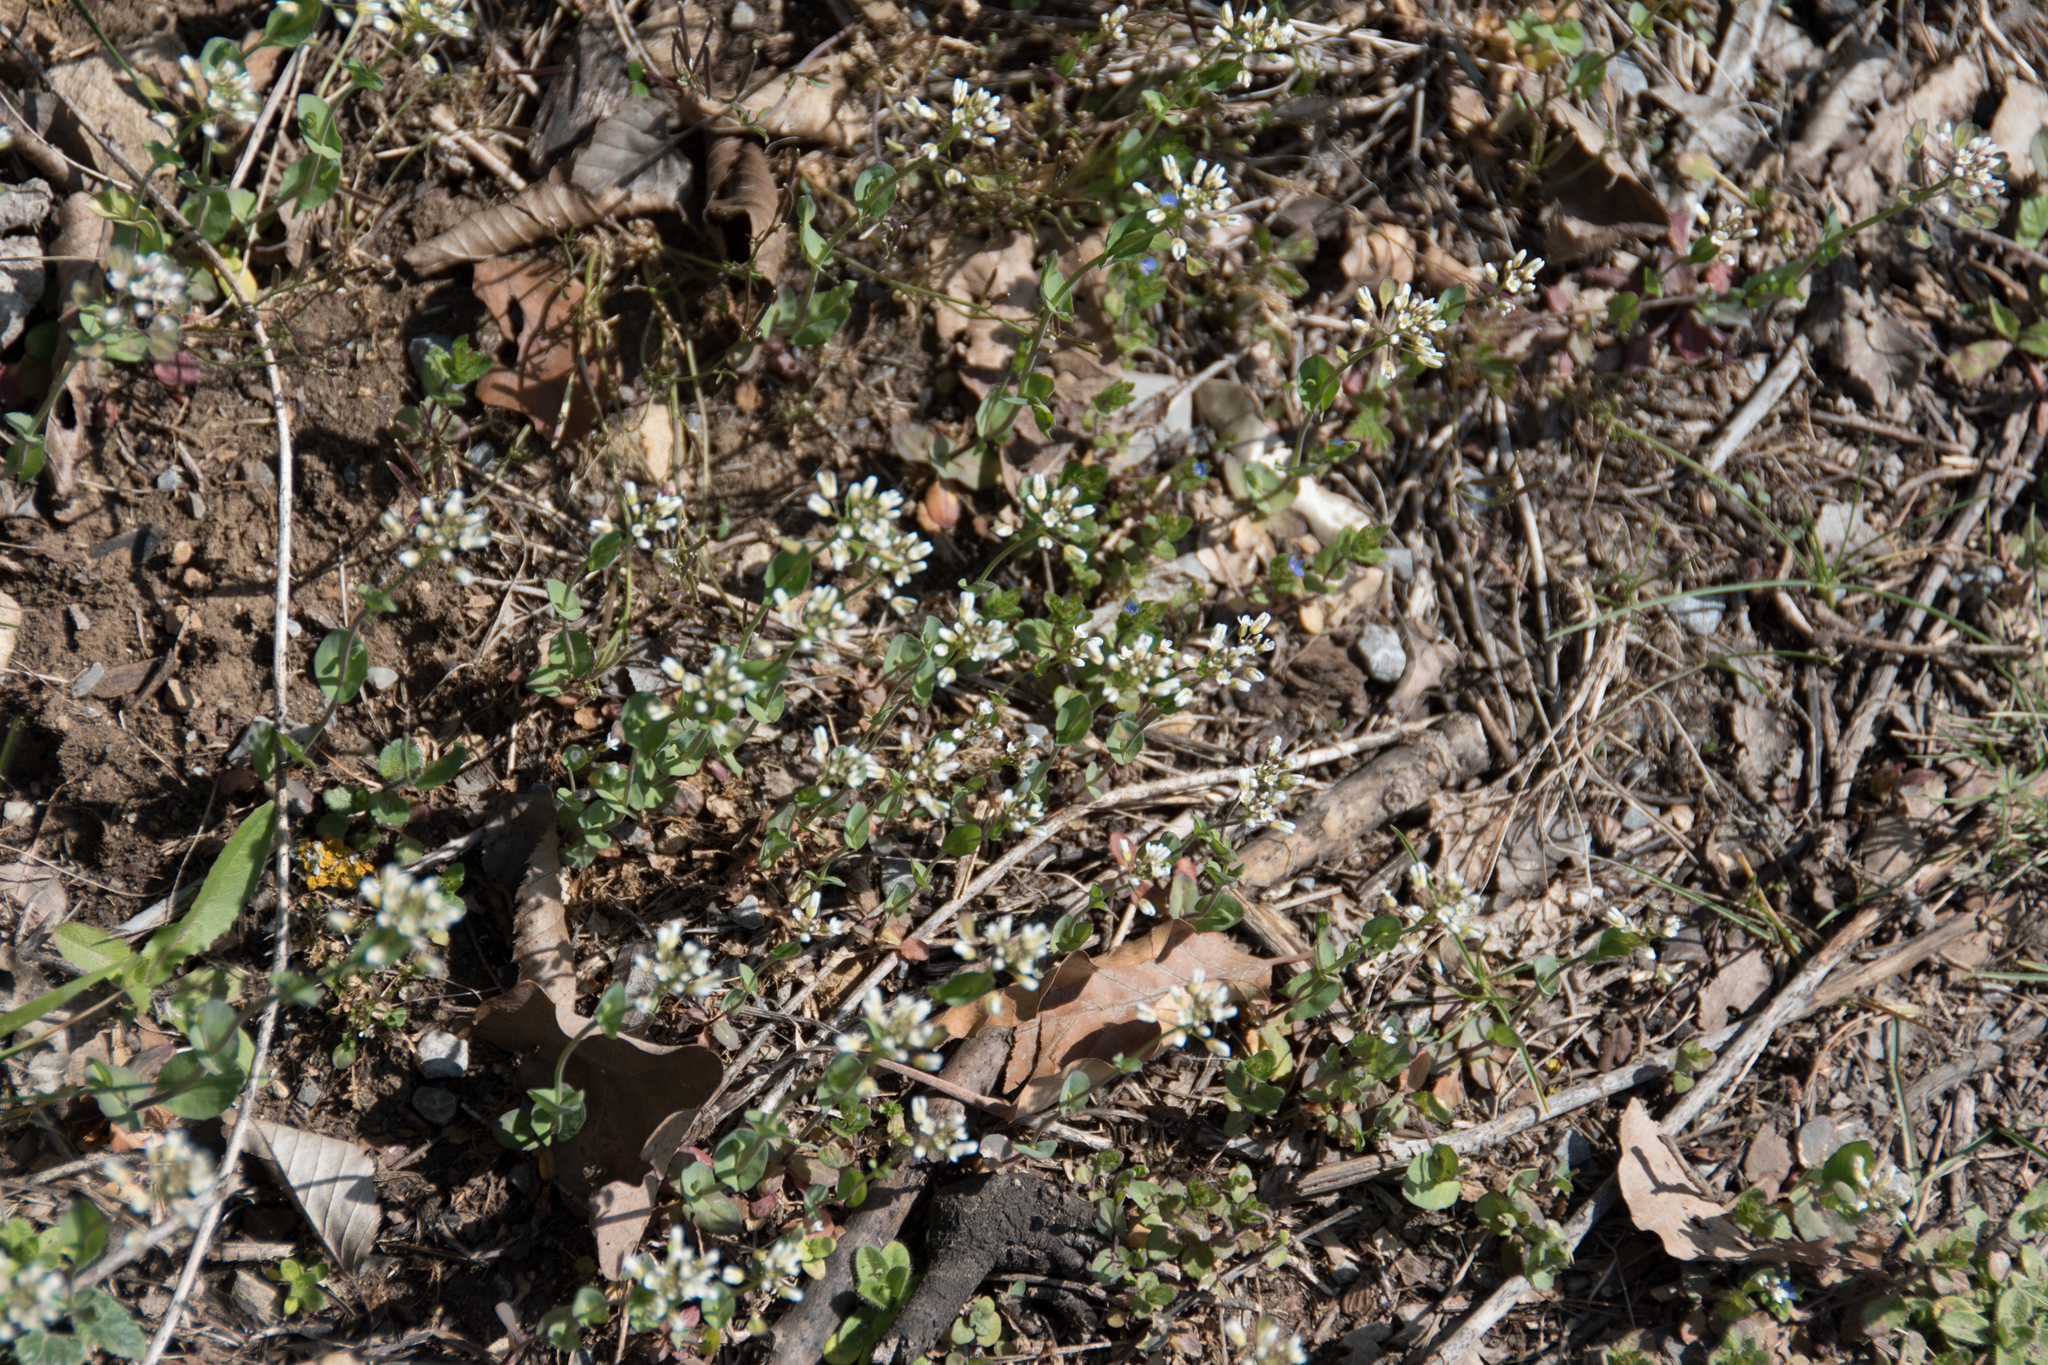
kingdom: Plantae
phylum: Tracheophyta
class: Magnoliopsida
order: Brassicales
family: Brassicaceae
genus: Noccaea
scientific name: Noccaea perfoliata
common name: Perfoliate pennycress
